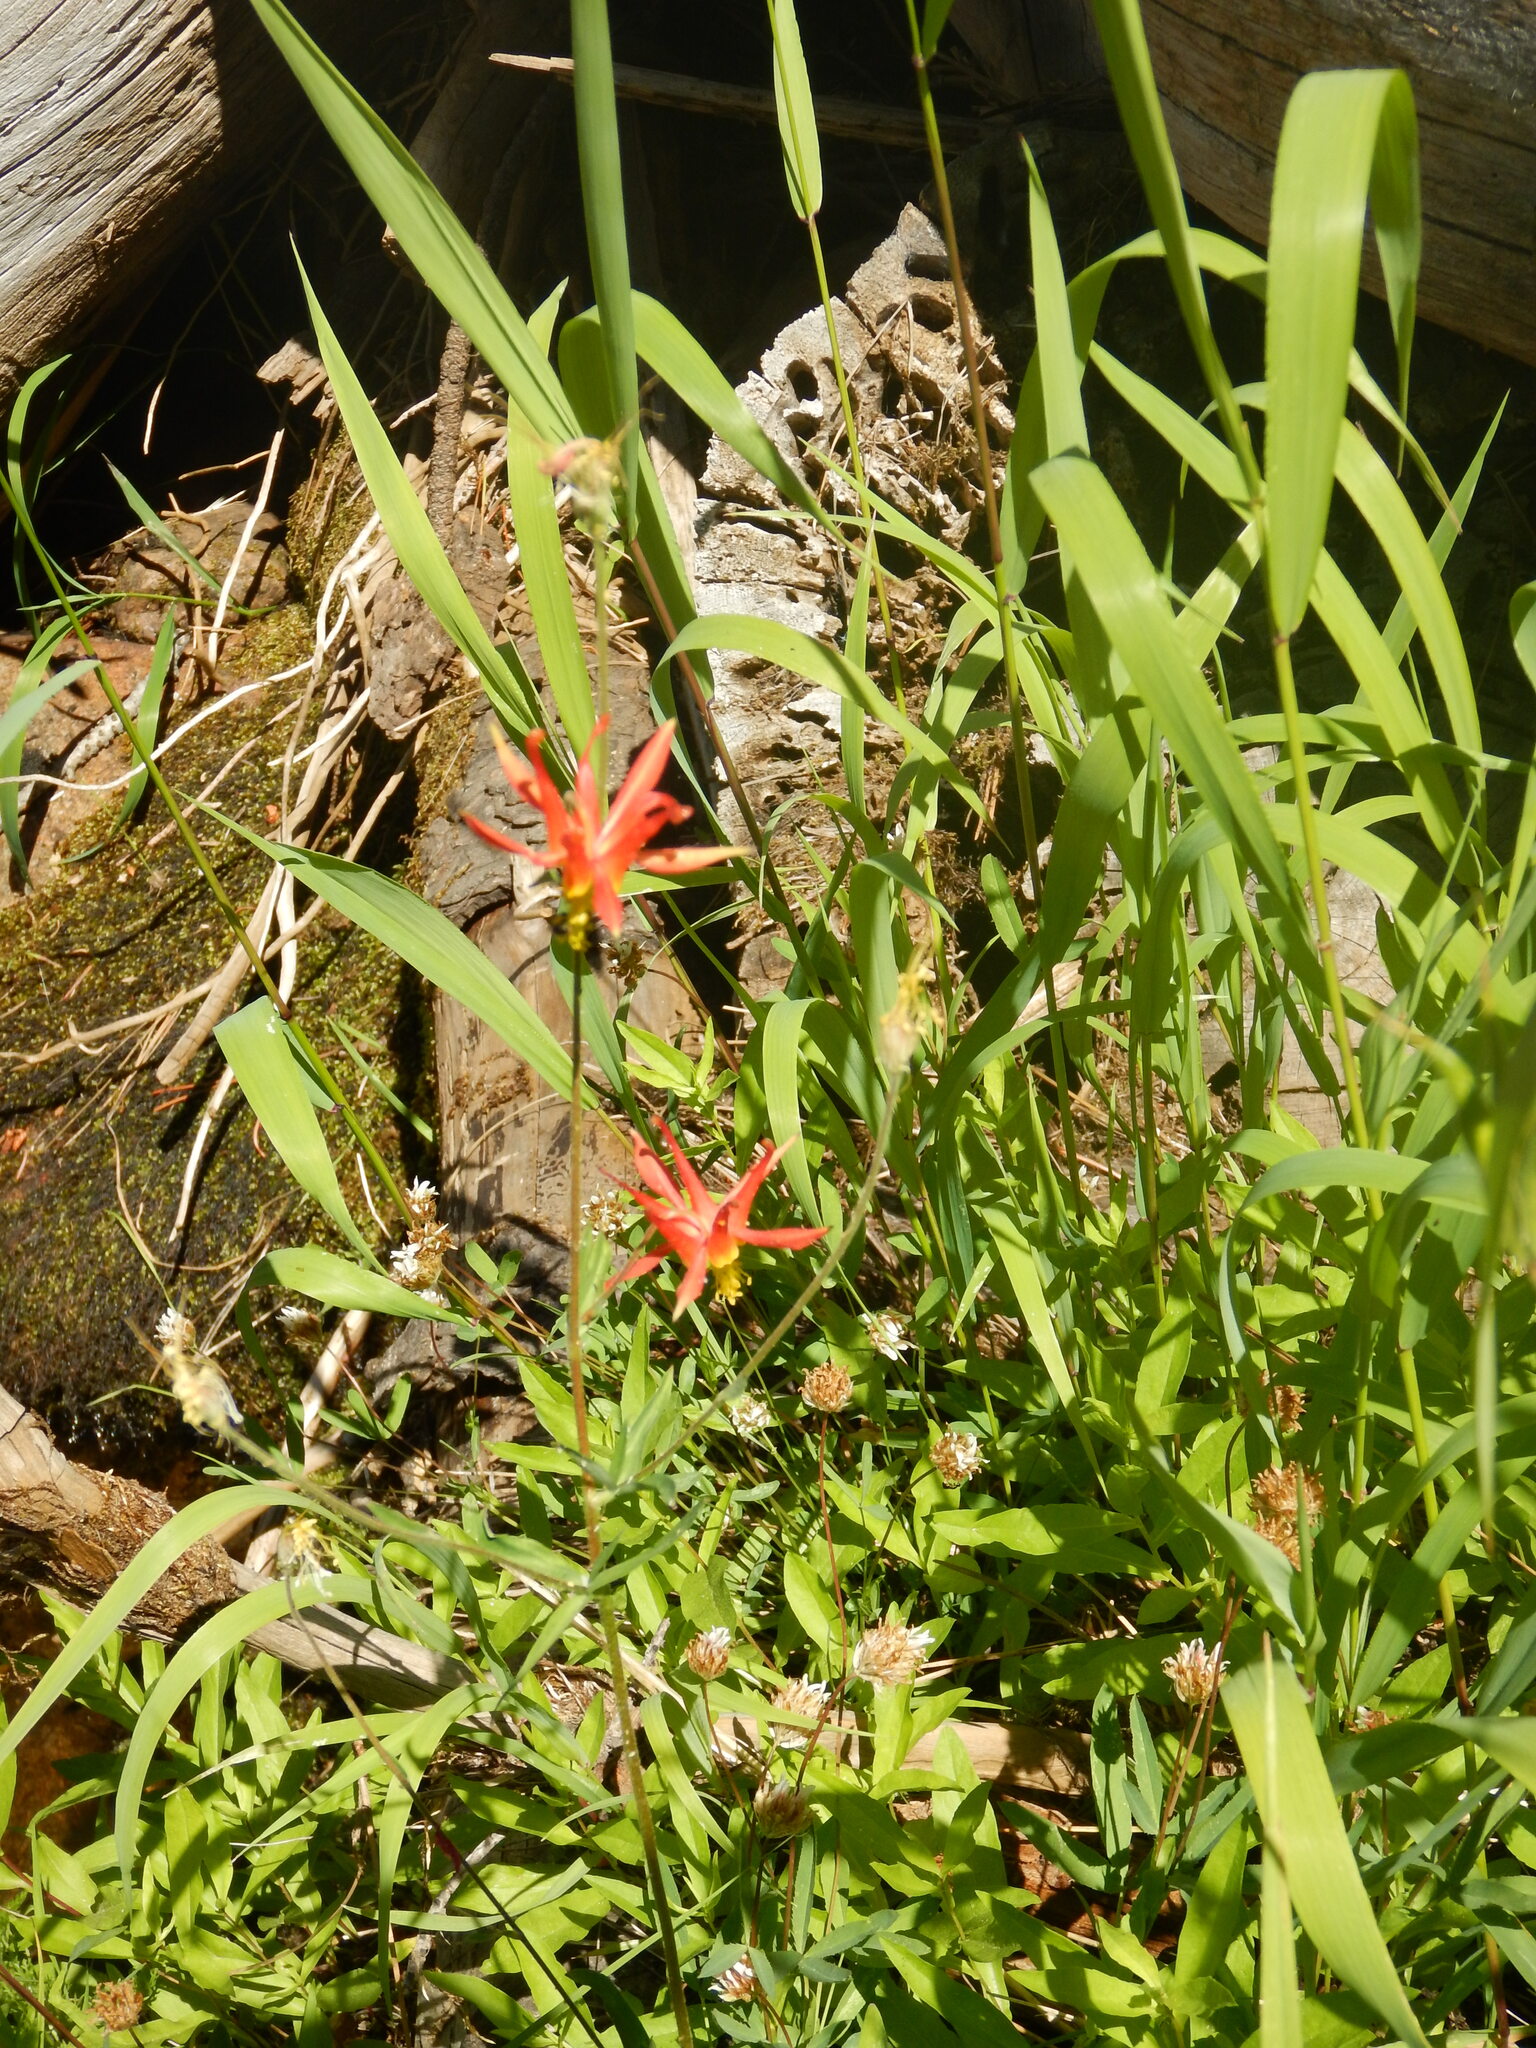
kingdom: Plantae
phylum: Tracheophyta
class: Magnoliopsida
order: Ranunculales
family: Ranunculaceae
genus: Aquilegia
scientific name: Aquilegia formosa
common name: Sitka columbine
